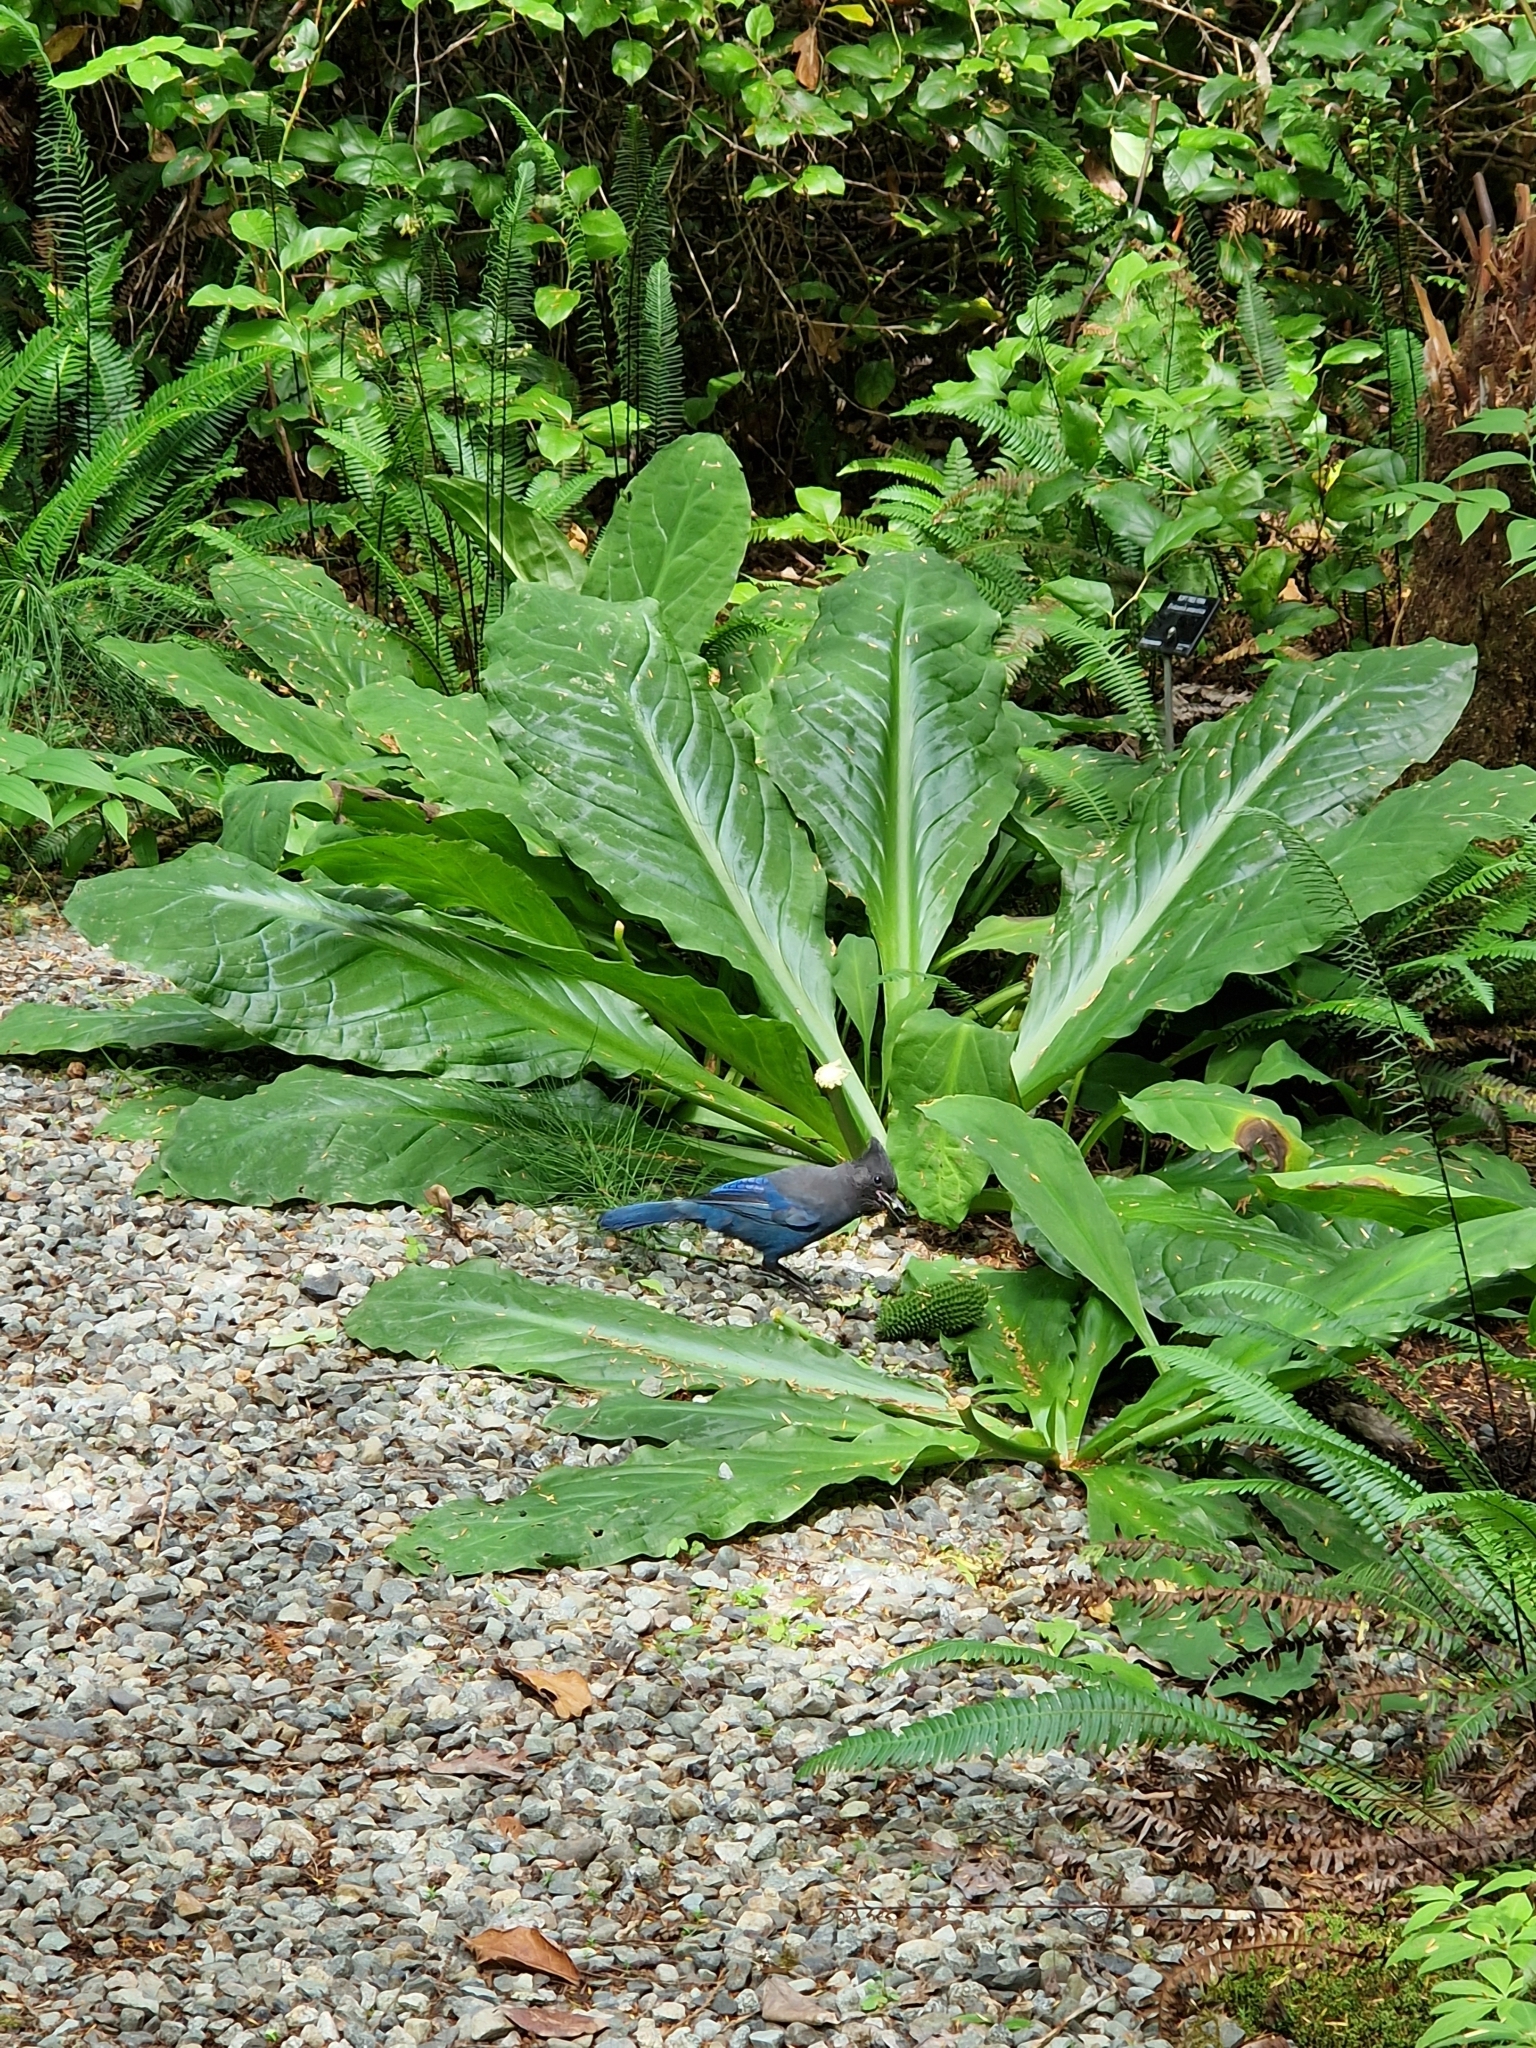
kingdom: Plantae
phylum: Tracheophyta
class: Liliopsida
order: Alismatales
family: Araceae
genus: Lysichiton
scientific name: Lysichiton americanus
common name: American skunk cabbage
